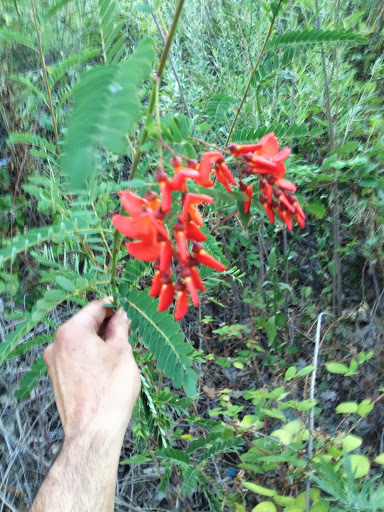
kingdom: Plantae
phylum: Tracheophyta
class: Magnoliopsida
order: Fabales
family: Fabaceae
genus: Sesbania
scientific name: Sesbania punicea
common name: Rattlebox
